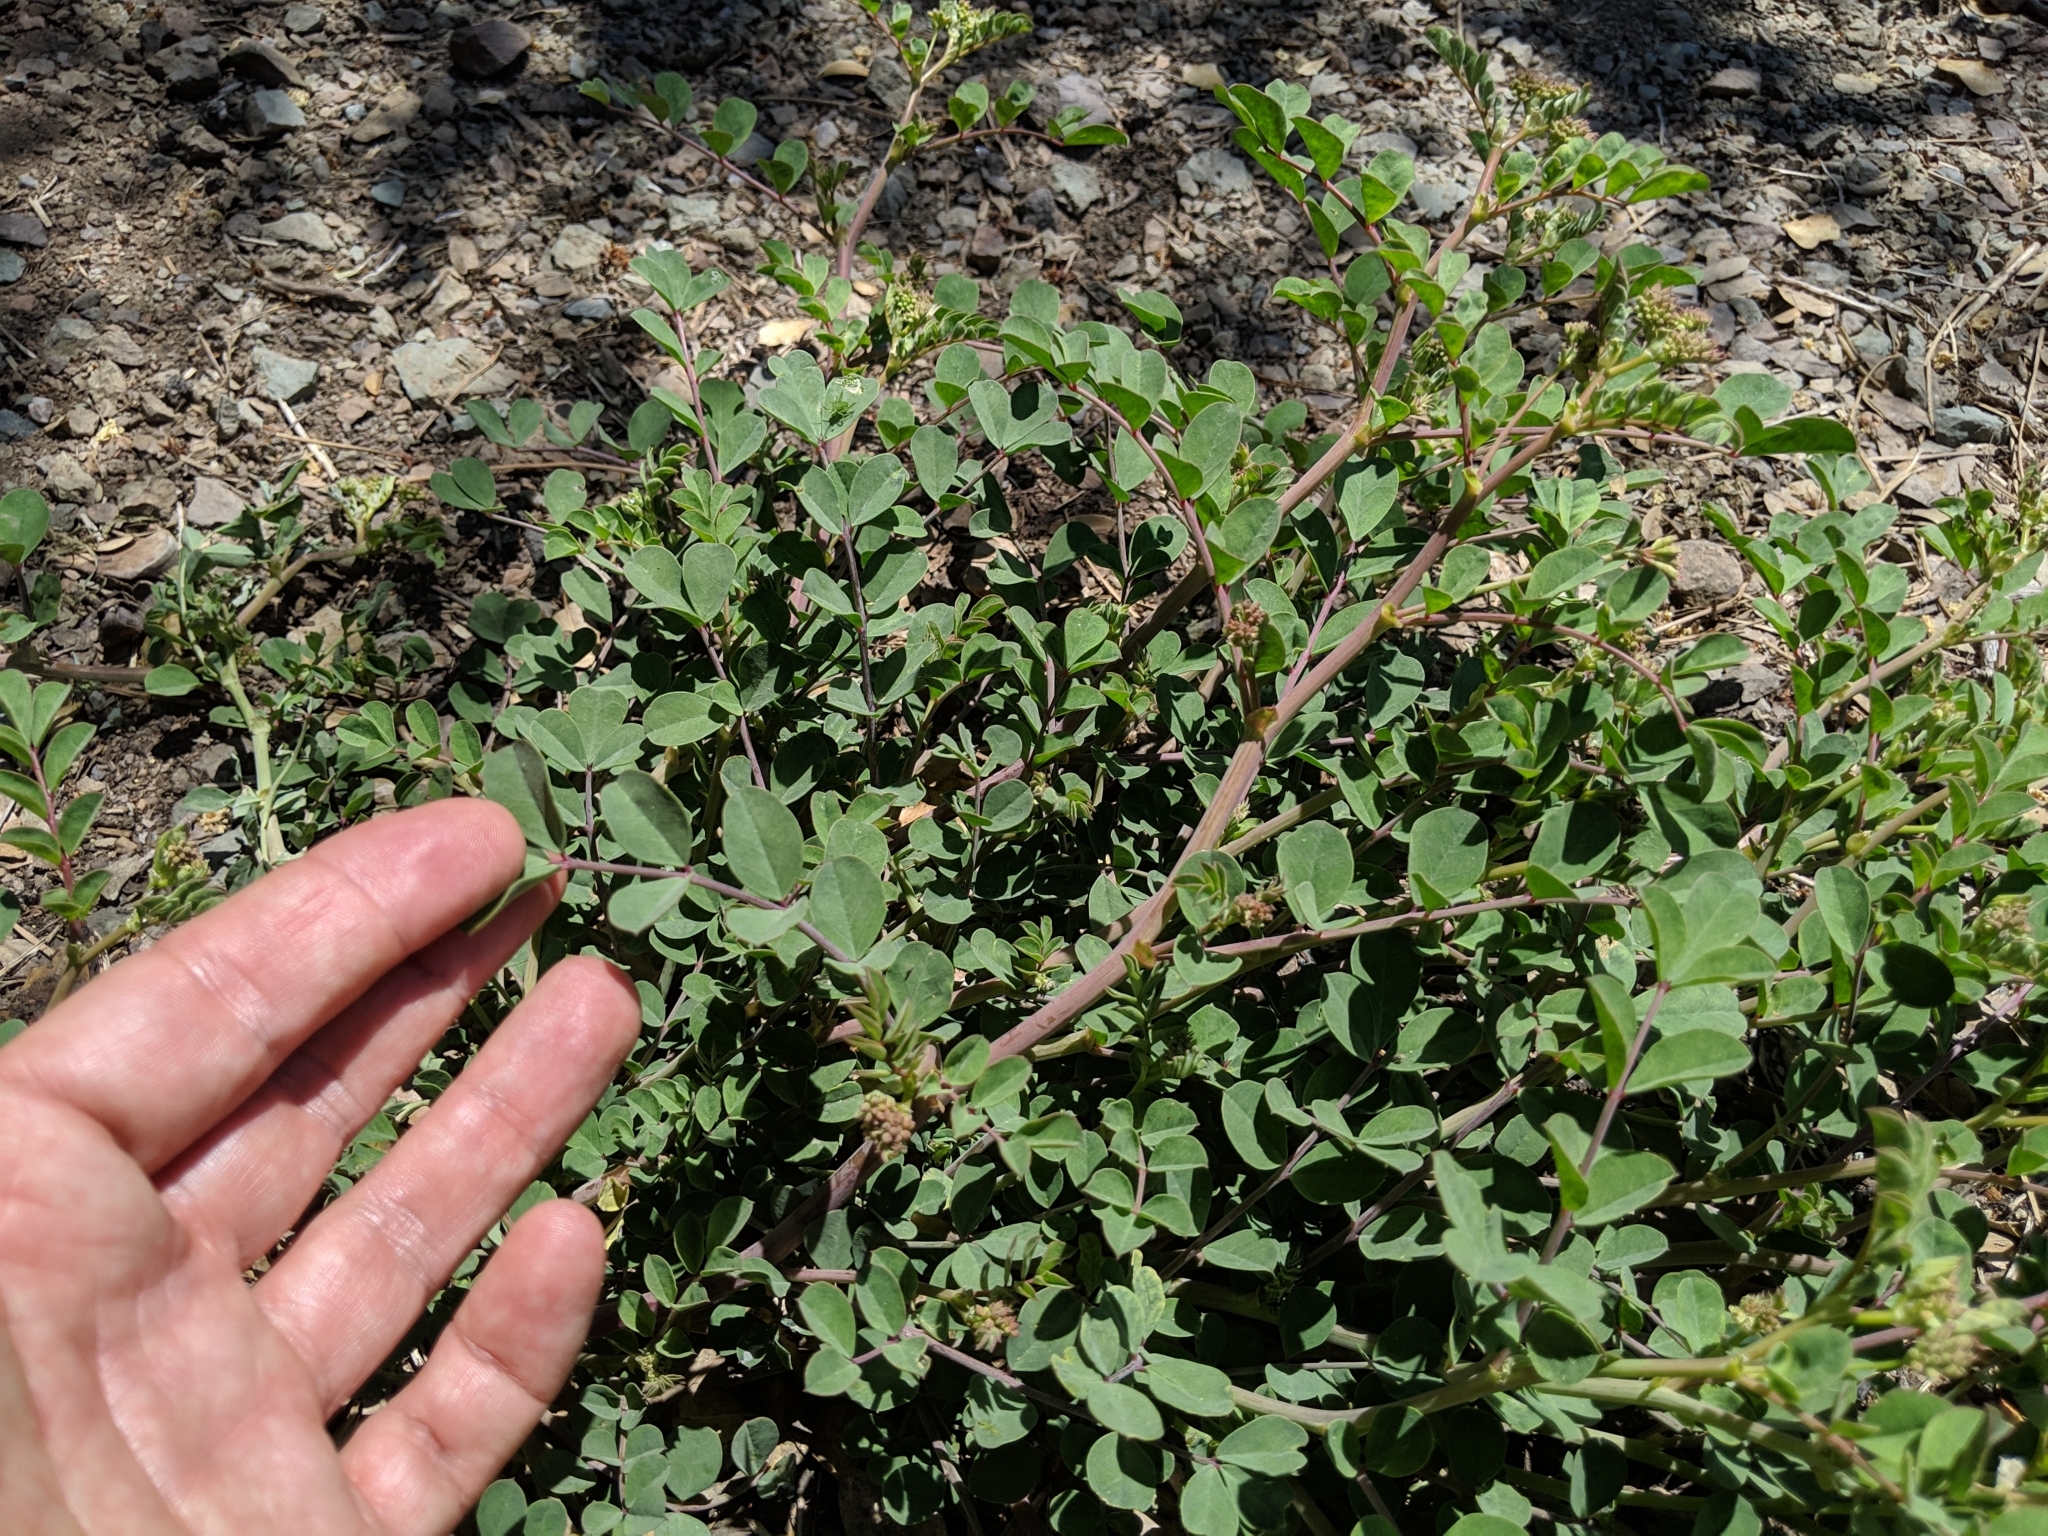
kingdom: Plantae
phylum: Tracheophyta
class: Magnoliopsida
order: Fabales
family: Fabaceae
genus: Hosackia
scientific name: Hosackia crassifolia
